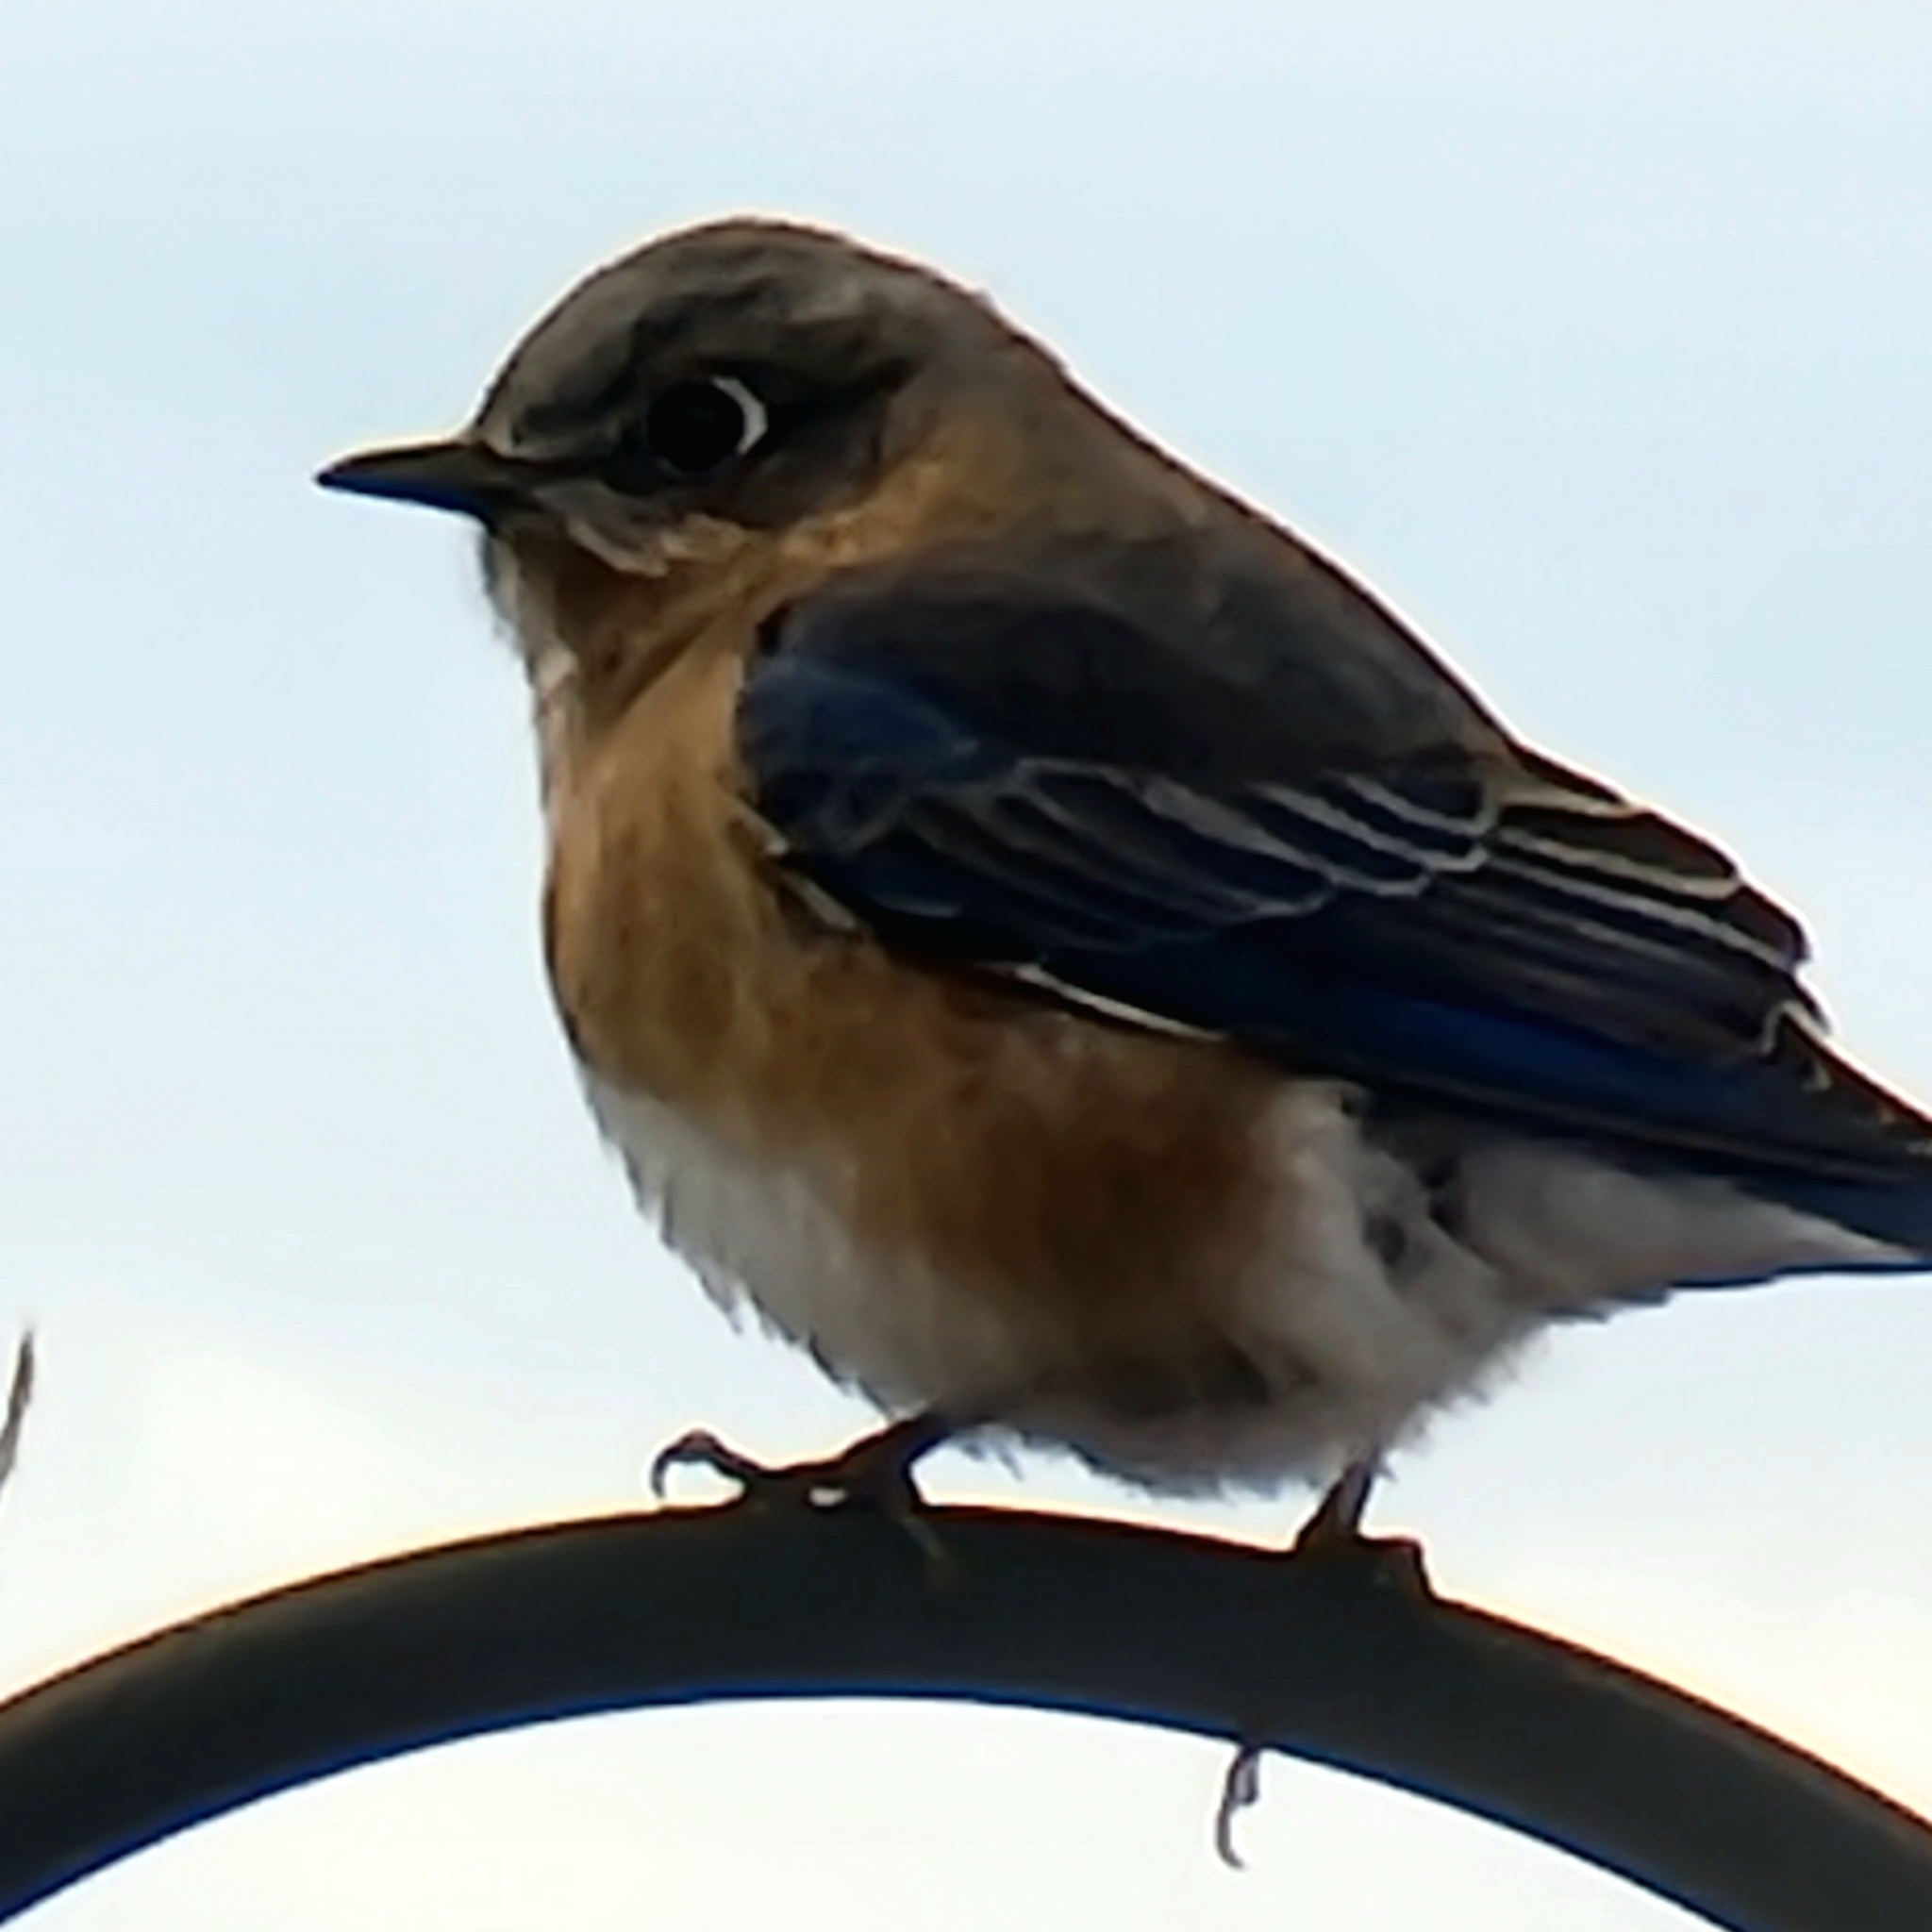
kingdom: Animalia
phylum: Chordata
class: Aves
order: Passeriformes
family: Turdidae
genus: Sialia
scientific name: Sialia sialis
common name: Eastern bluebird
